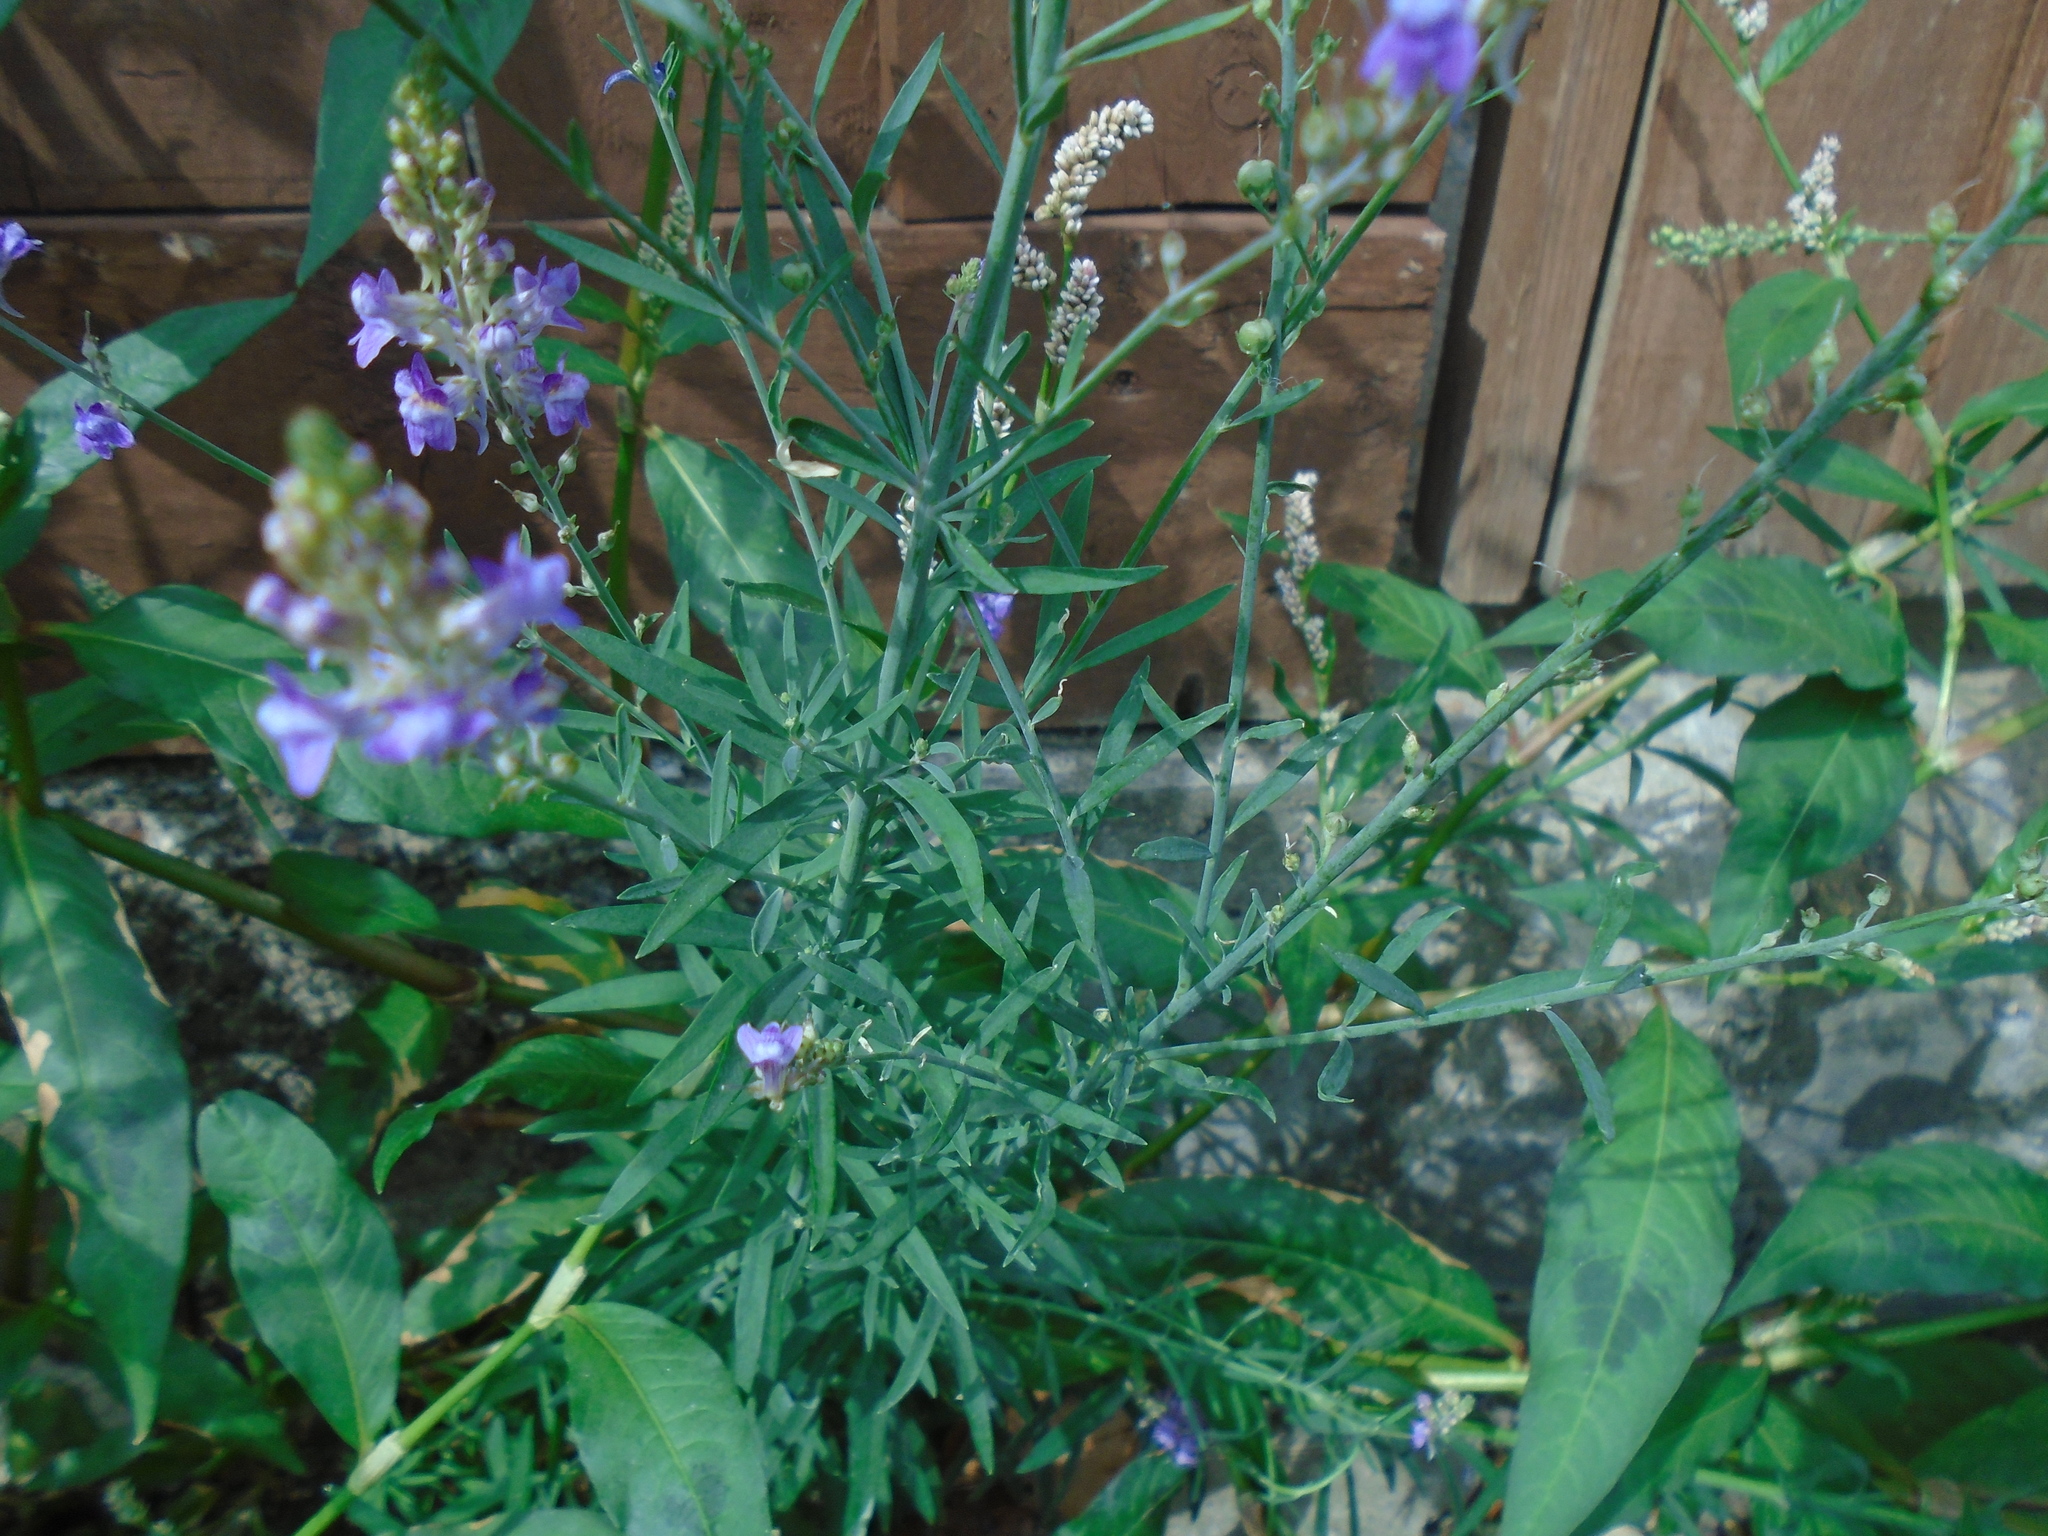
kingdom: Plantae
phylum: Tracheophyta
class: Magnoliopsida
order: Lamiales
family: Plantaginaceae
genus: Linaria
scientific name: Linaria purpurea
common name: Purple toadflax
